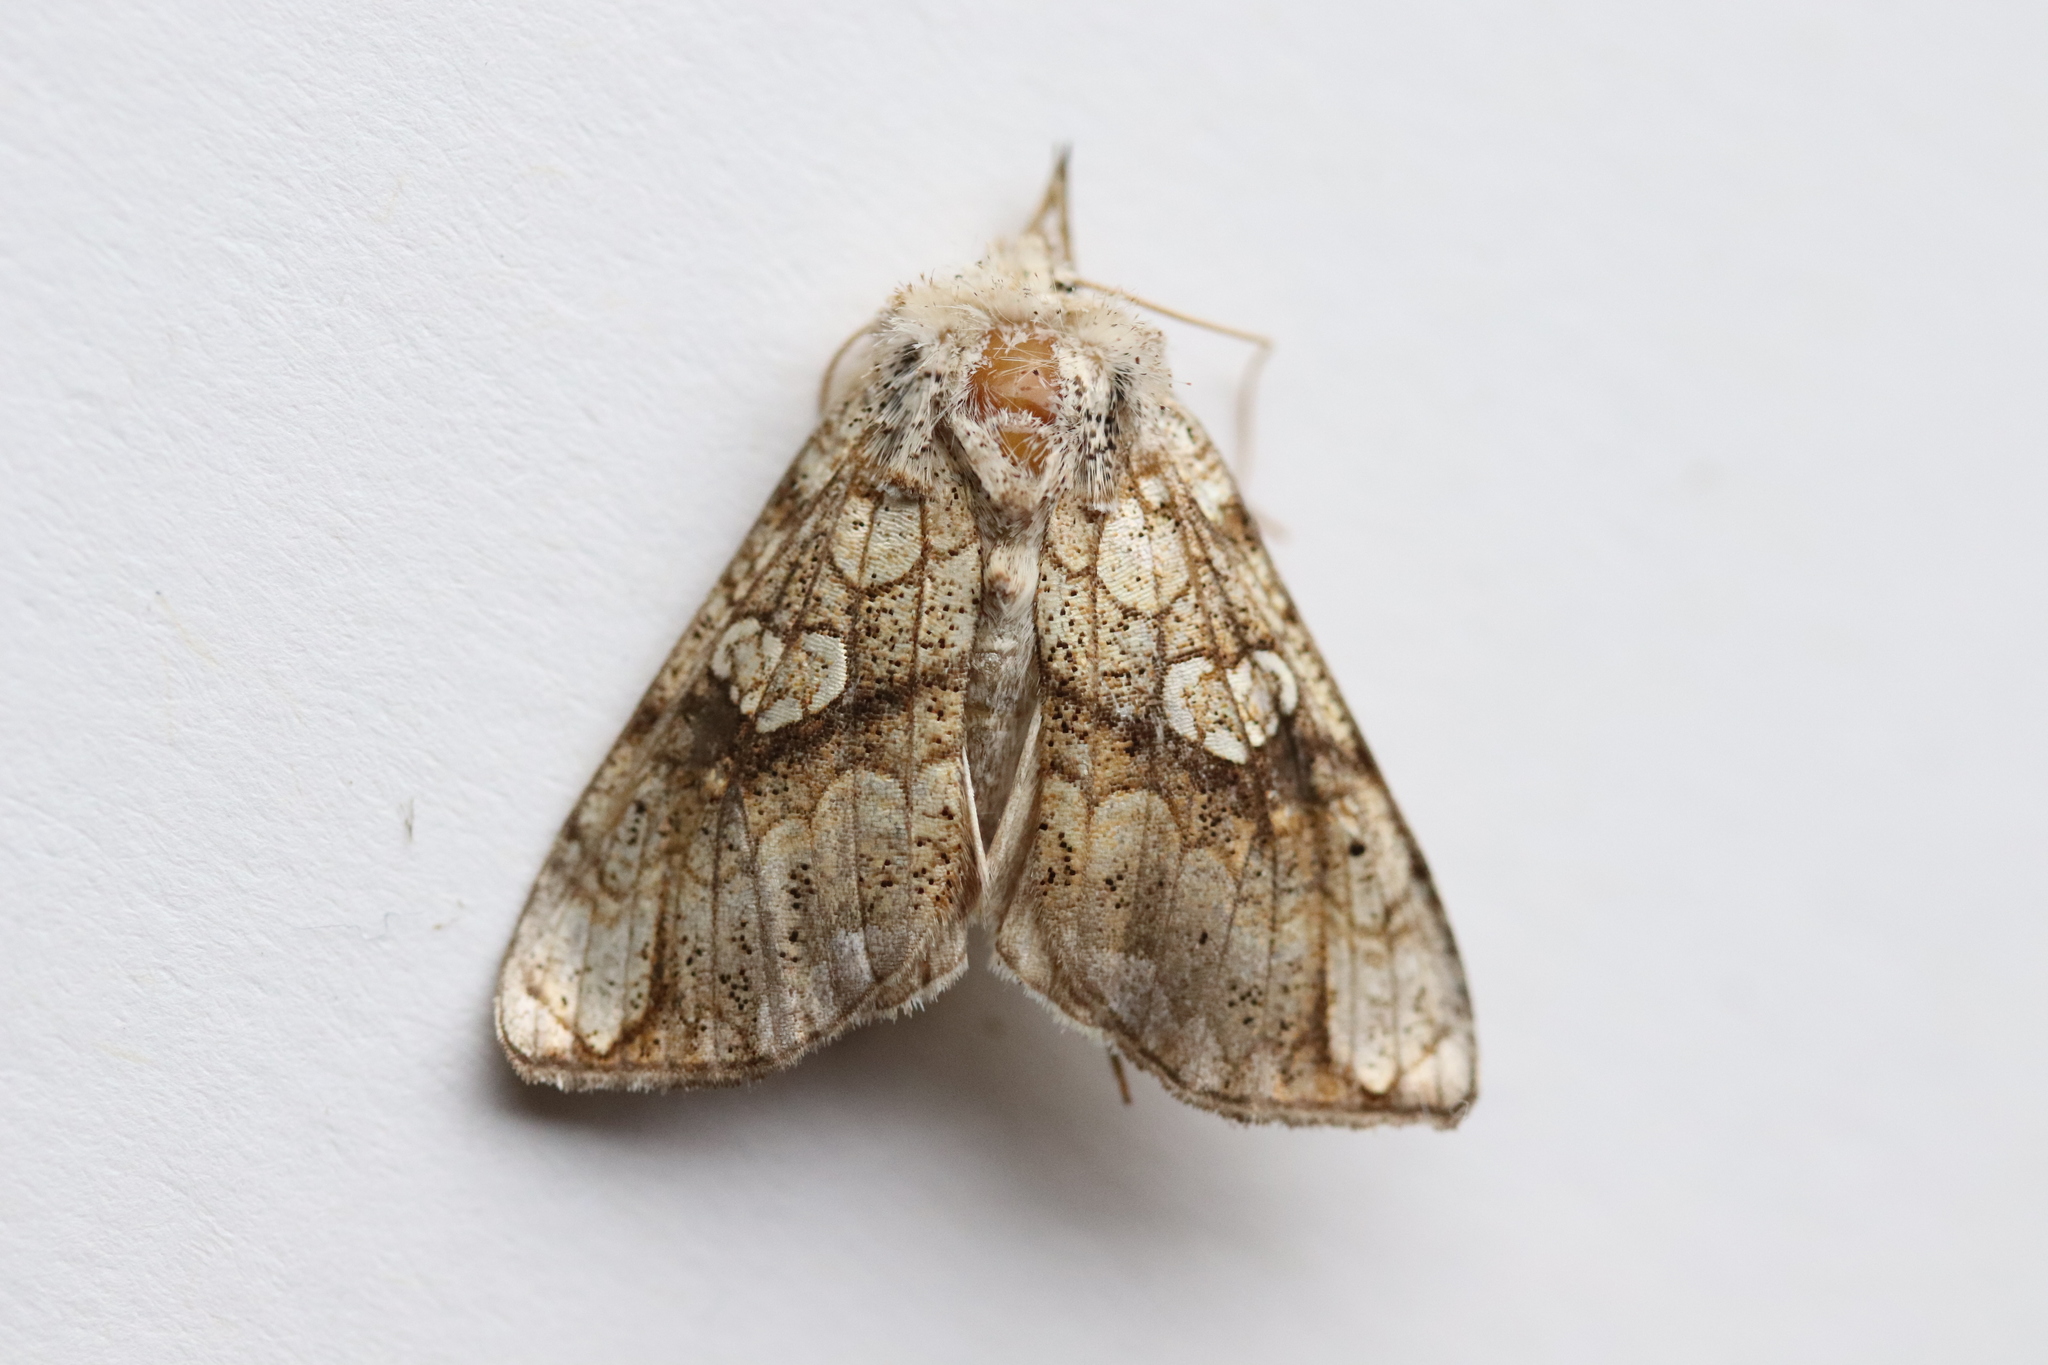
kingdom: Animalia
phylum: Arthropoda
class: Insecta
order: Lepidoptera
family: Noctuidae
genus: Polychrysia
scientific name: Polychrysia esmeralda
